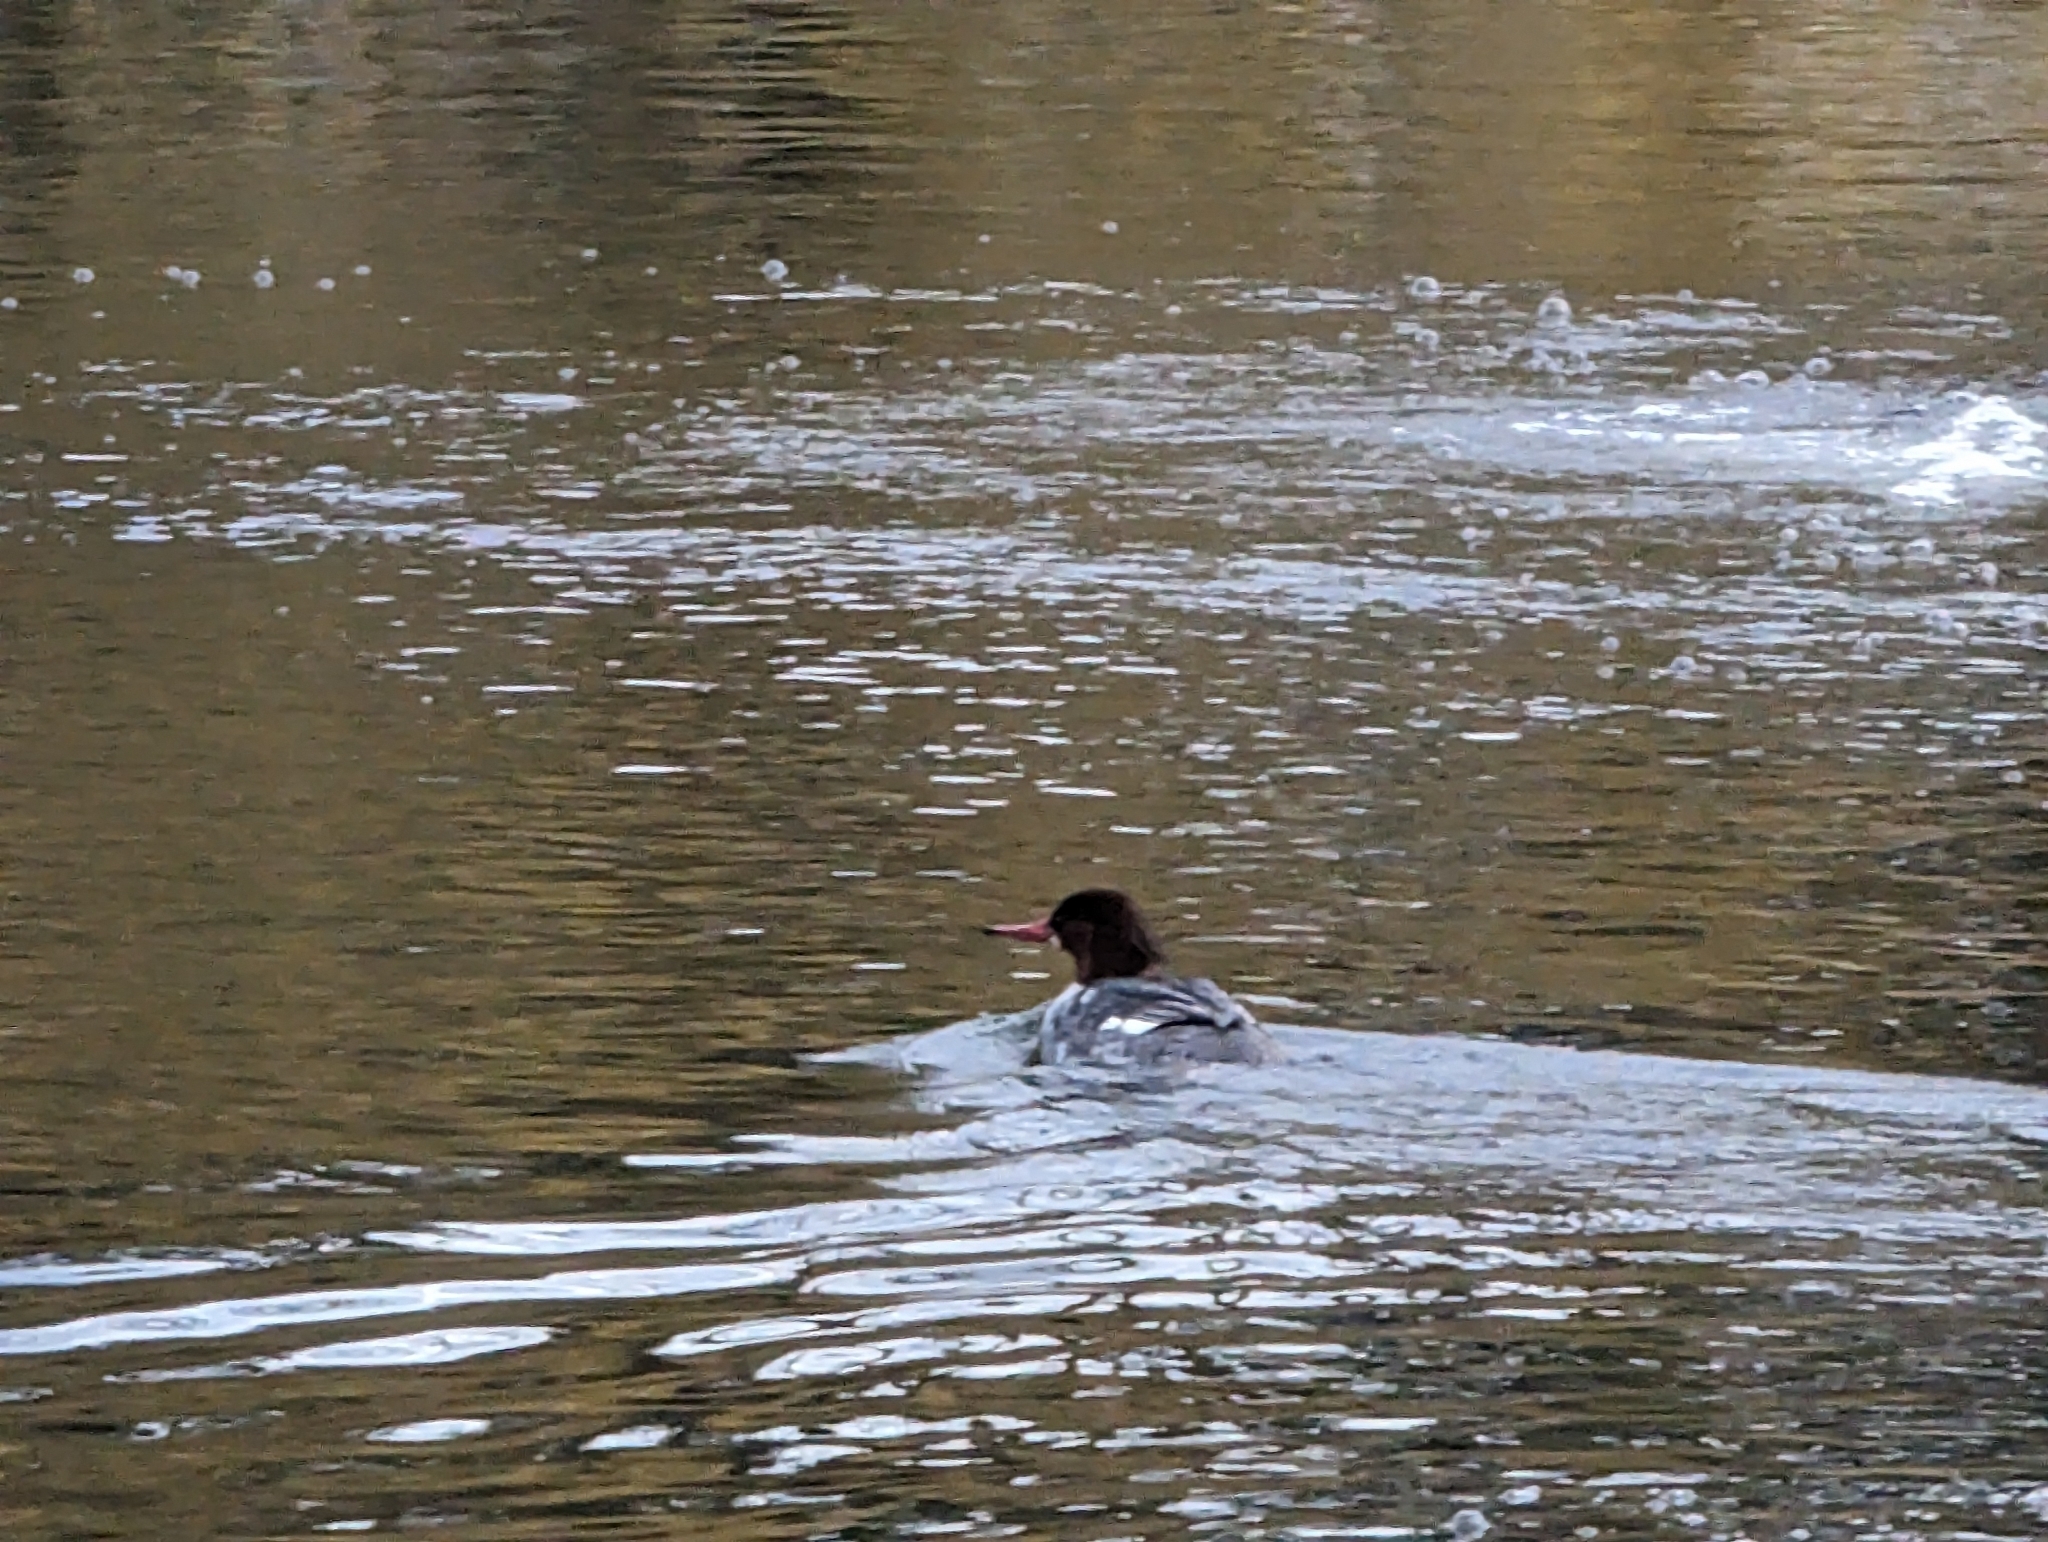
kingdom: Animalia
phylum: Chordata
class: Aves
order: Anseriformes
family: Anatidae
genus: Mergus
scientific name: Mergus merganser
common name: Common merganser
